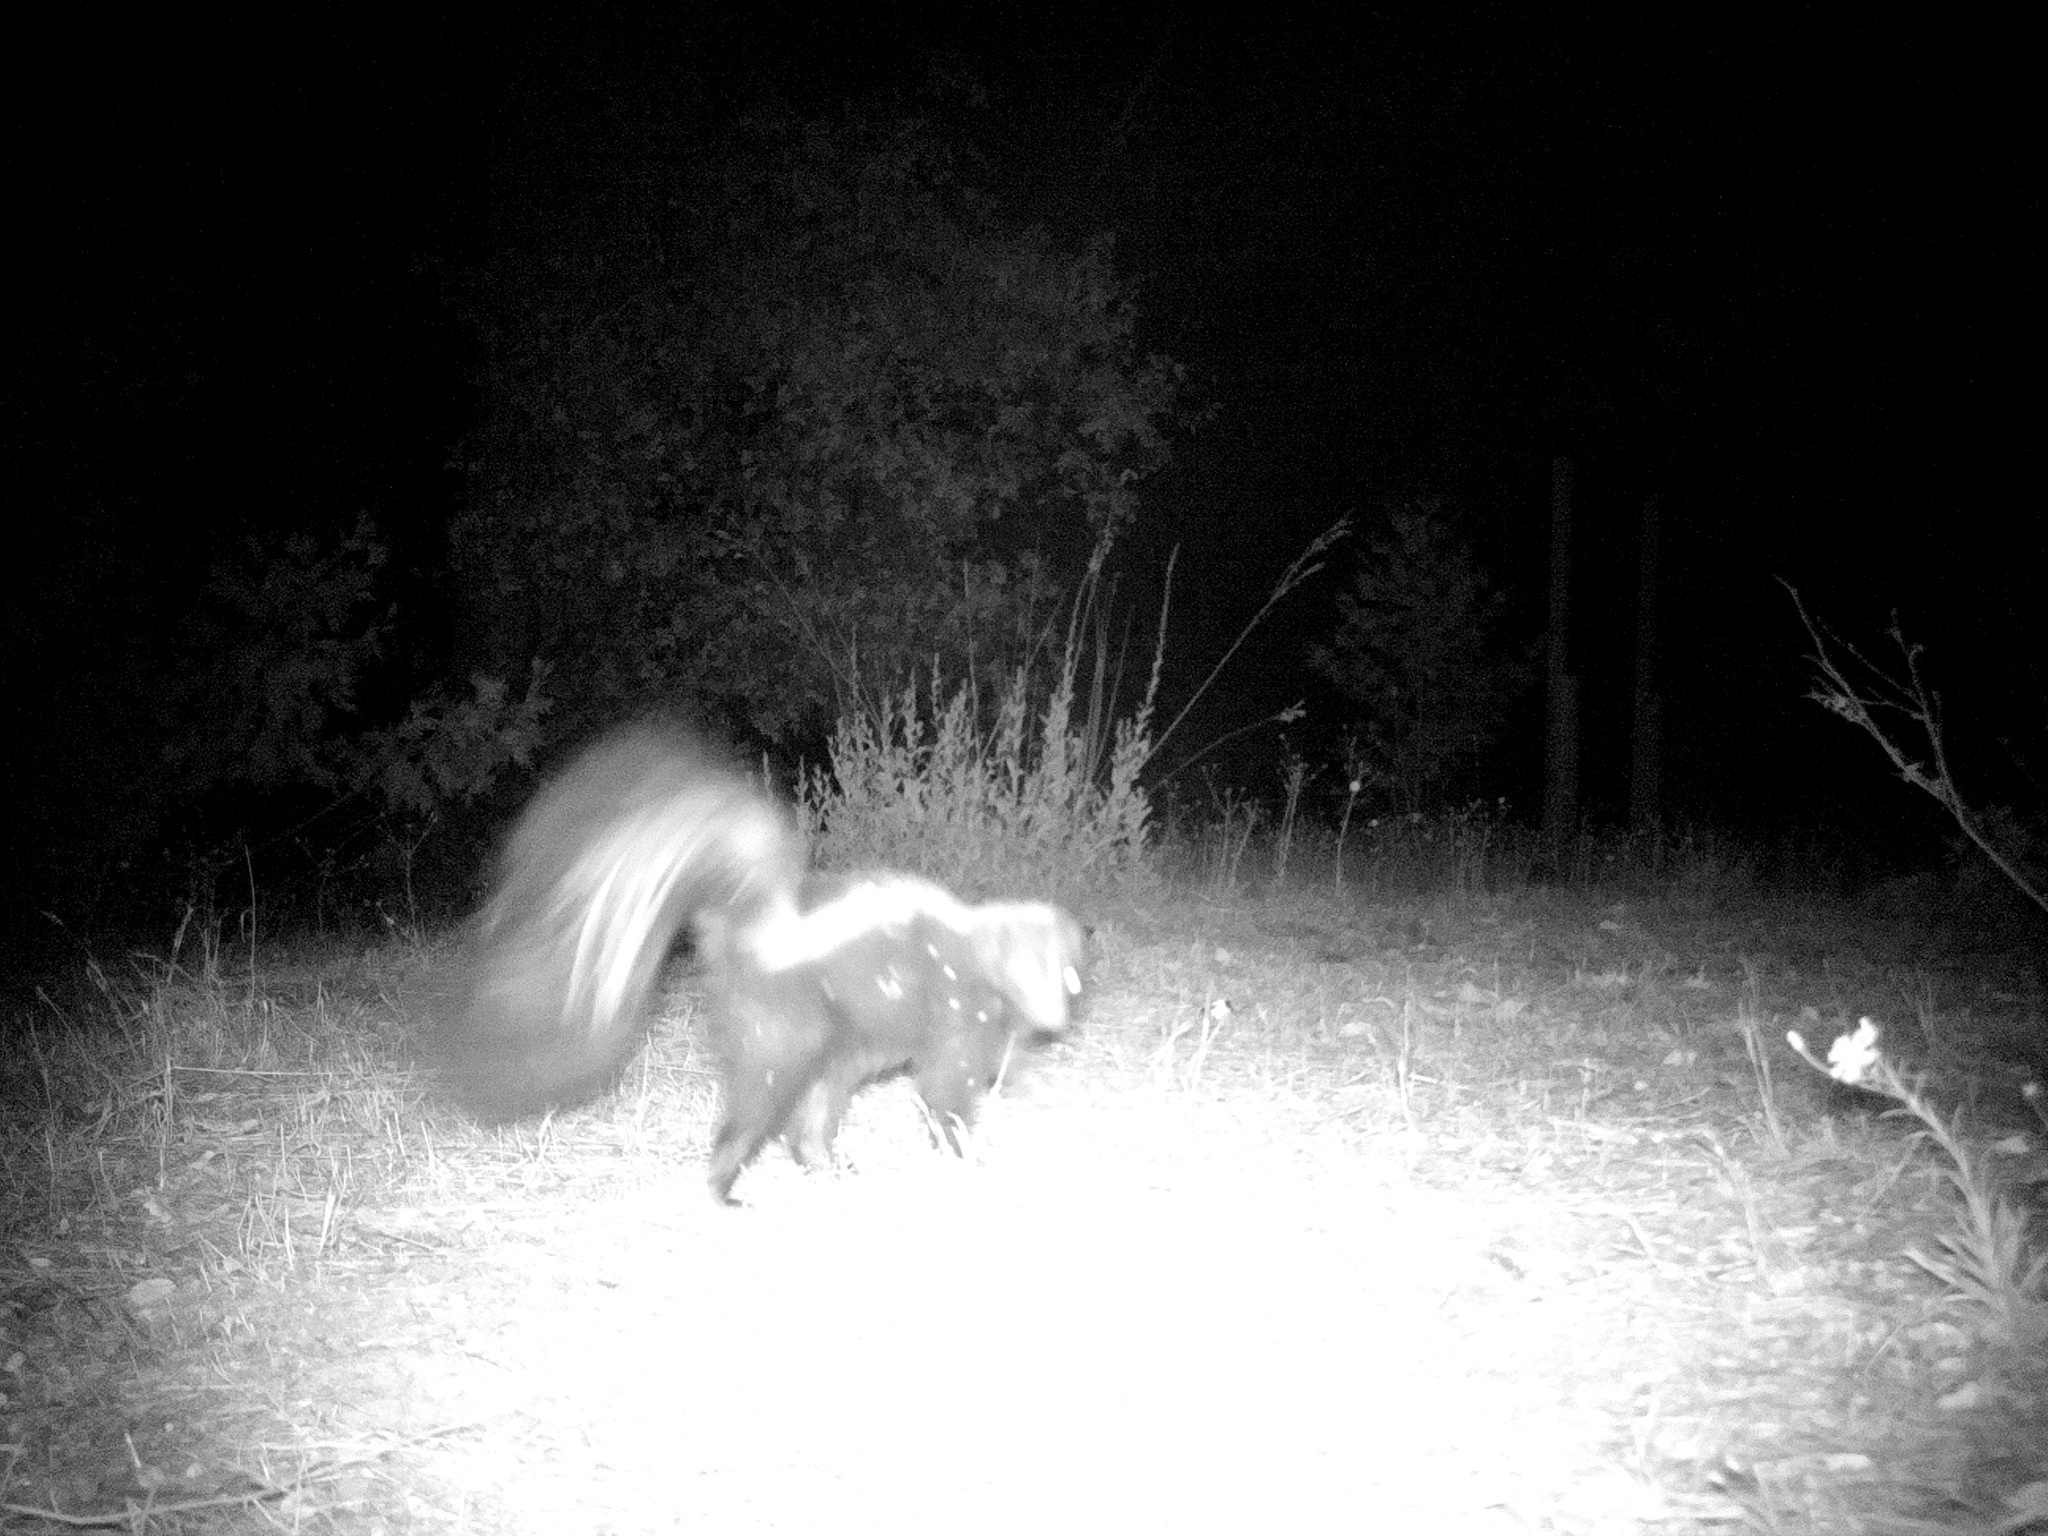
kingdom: Animalia
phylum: Chordata
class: Mammalia
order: Carnivora
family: Mephitidae
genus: Mephitis
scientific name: Mephitis mephitis
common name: Striped skunk
